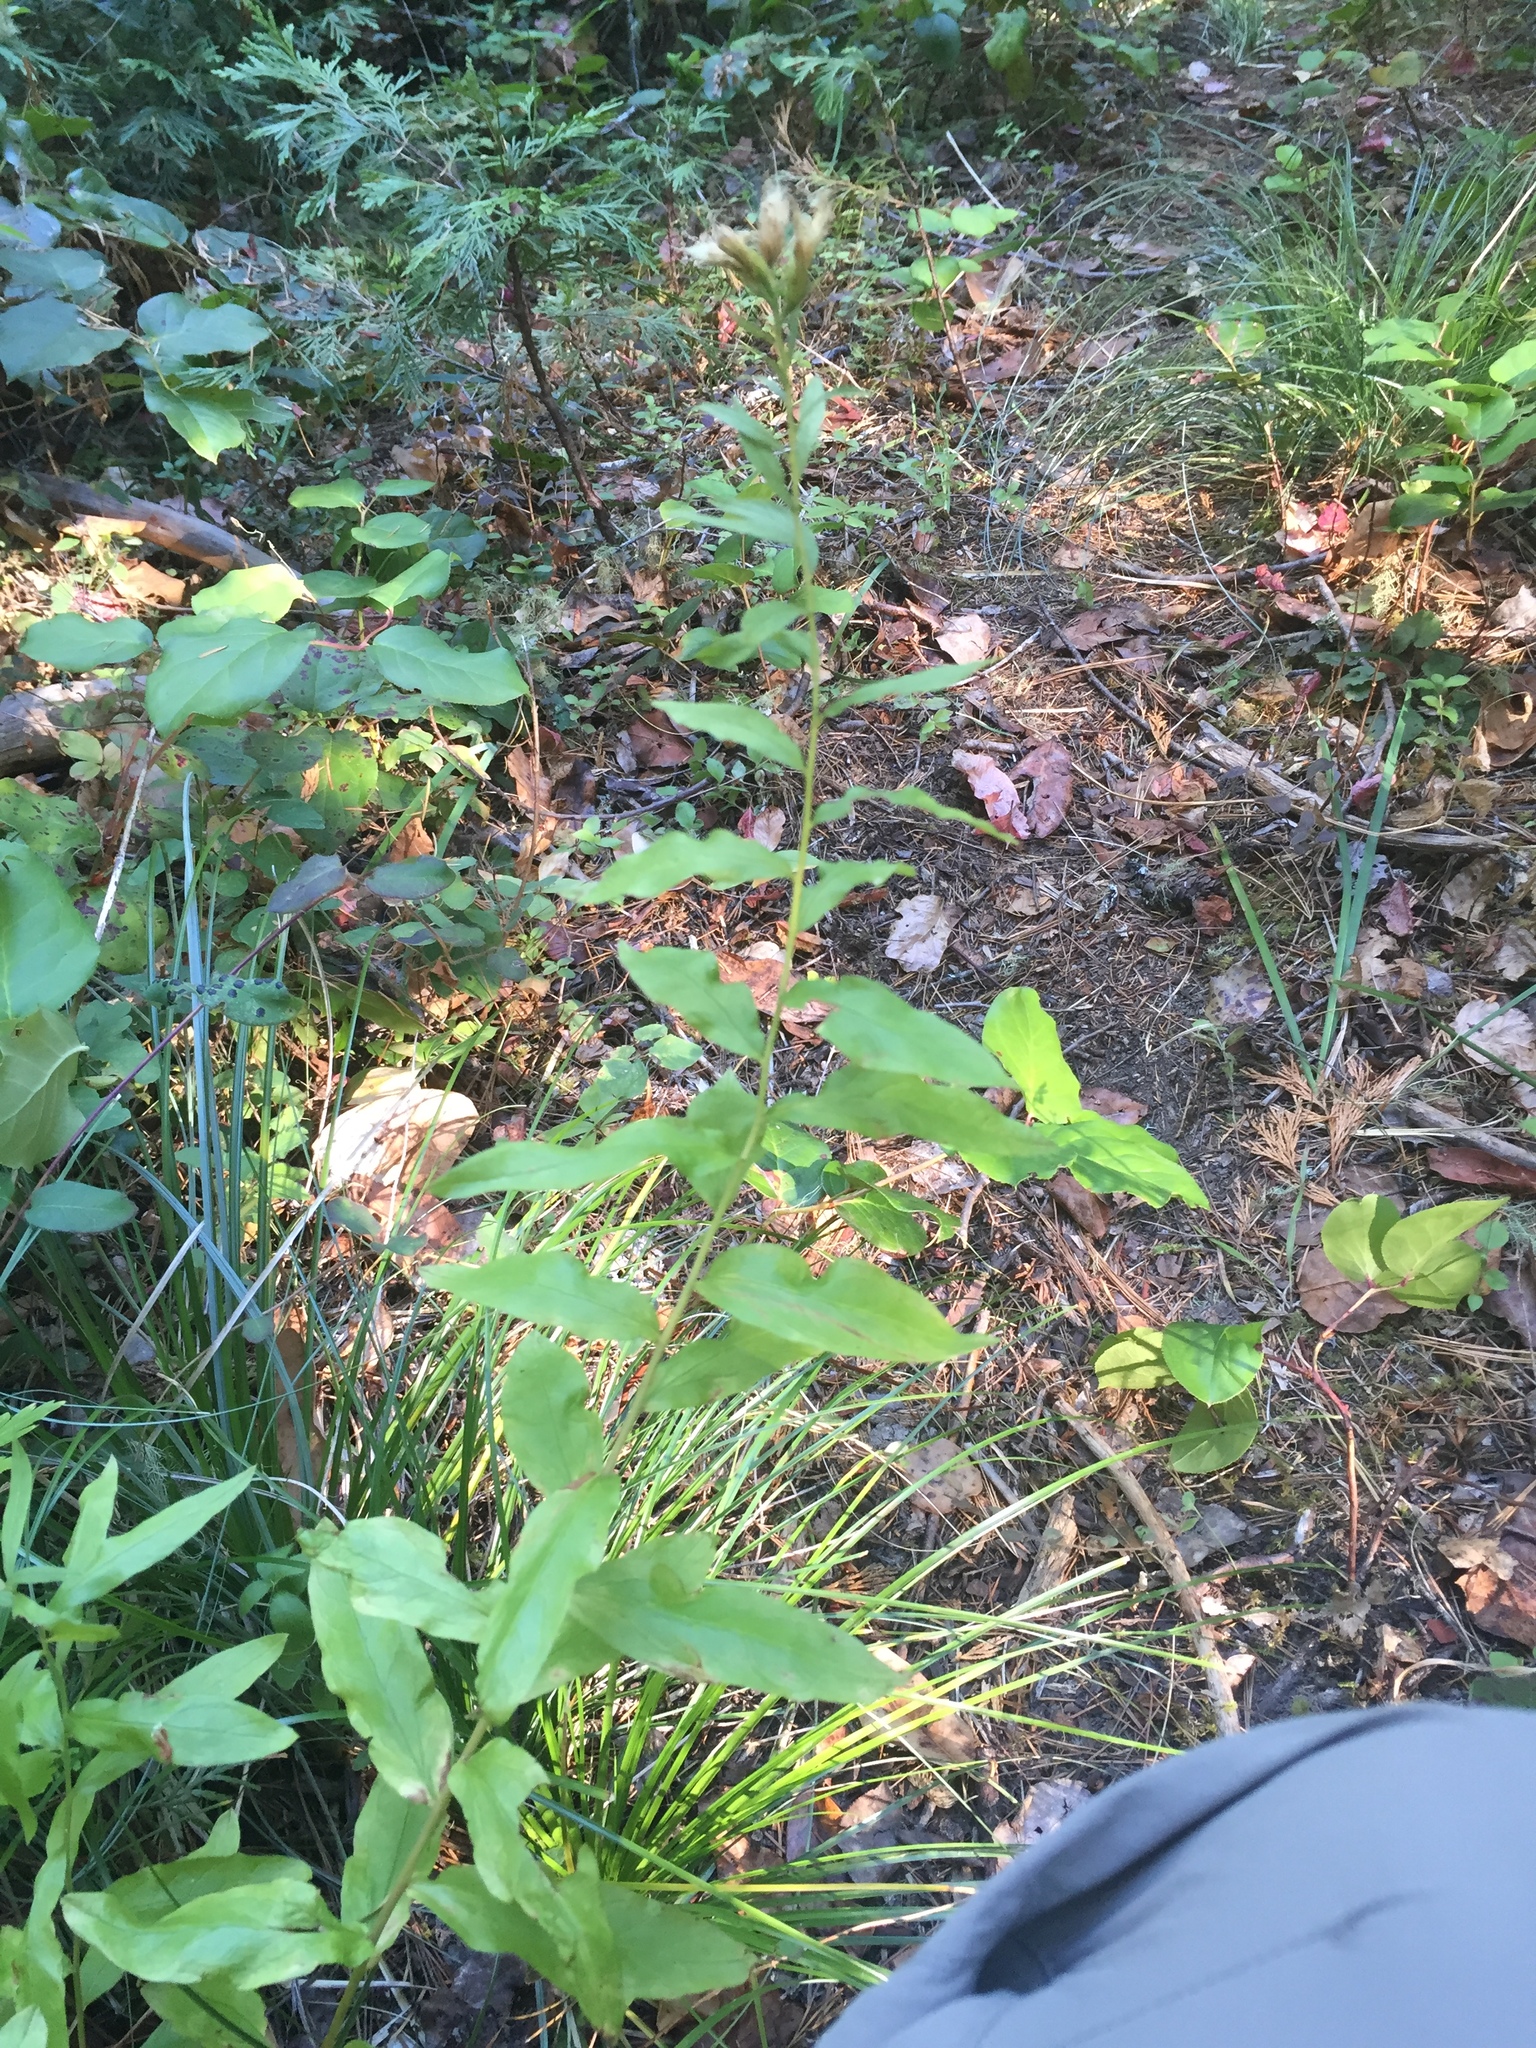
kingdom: Plantae
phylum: Tracheophyta
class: Magnoliopsida
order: Asterales
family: Asteraceae
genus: Eucephalus
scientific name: Eucephalus vialis
